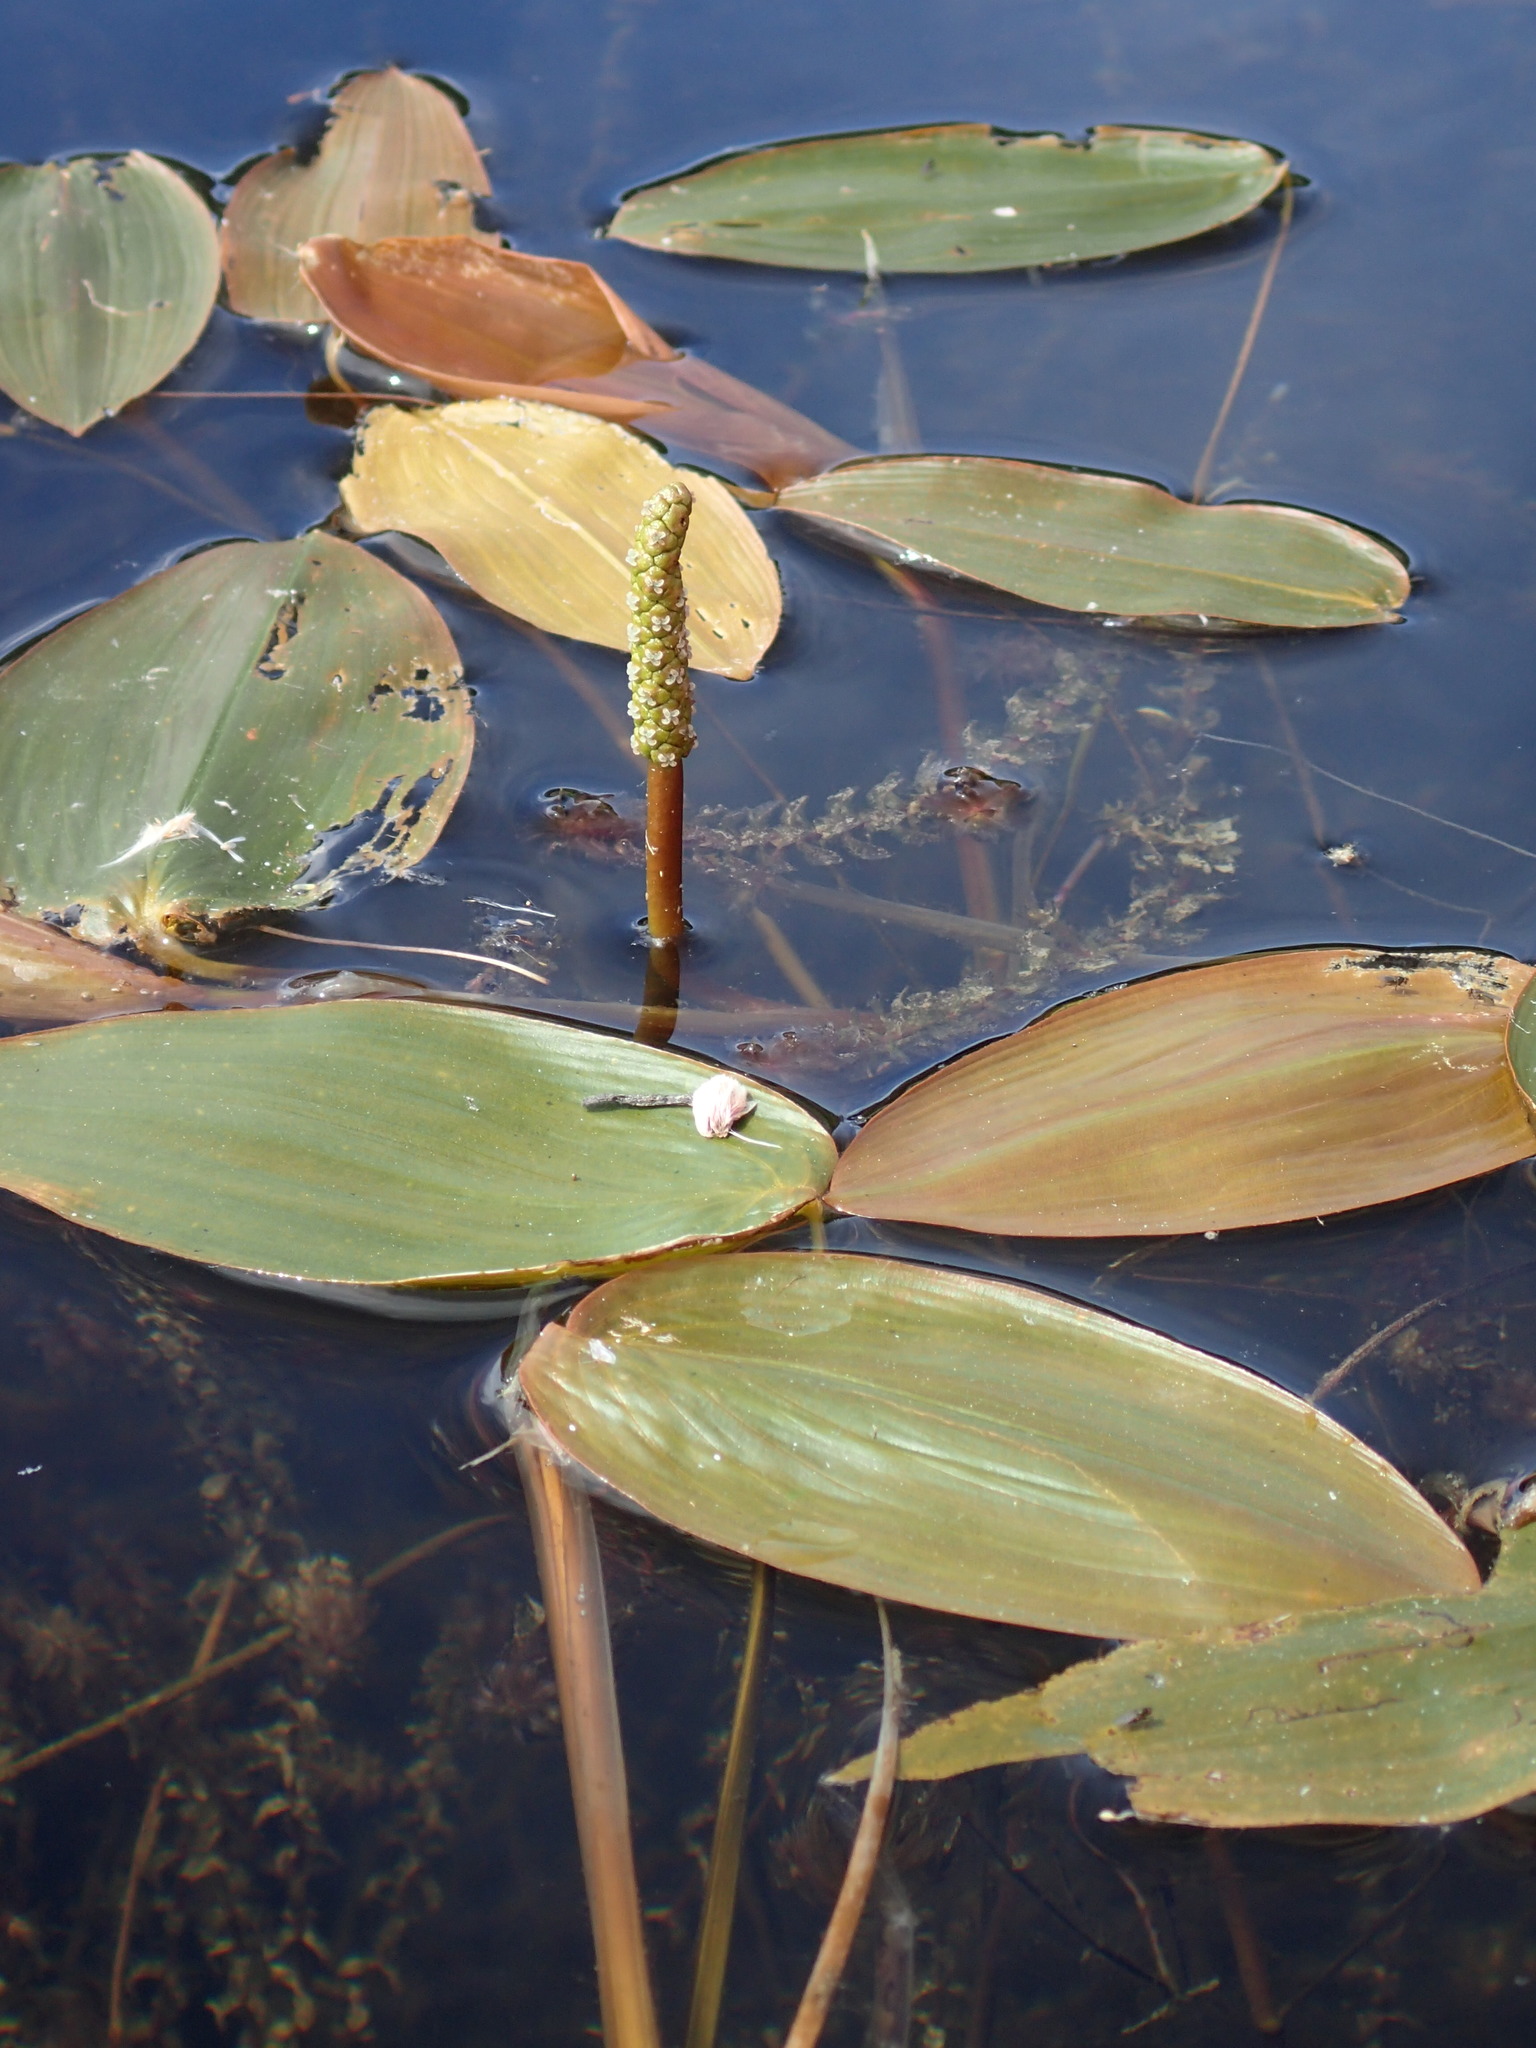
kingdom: Plantae
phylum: Tracheophyta
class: Liliopsida
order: Alismatales
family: Potamogetonaceae
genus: Potamogeton
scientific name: Potamogeton natans
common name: Broad-leaved pondweed
